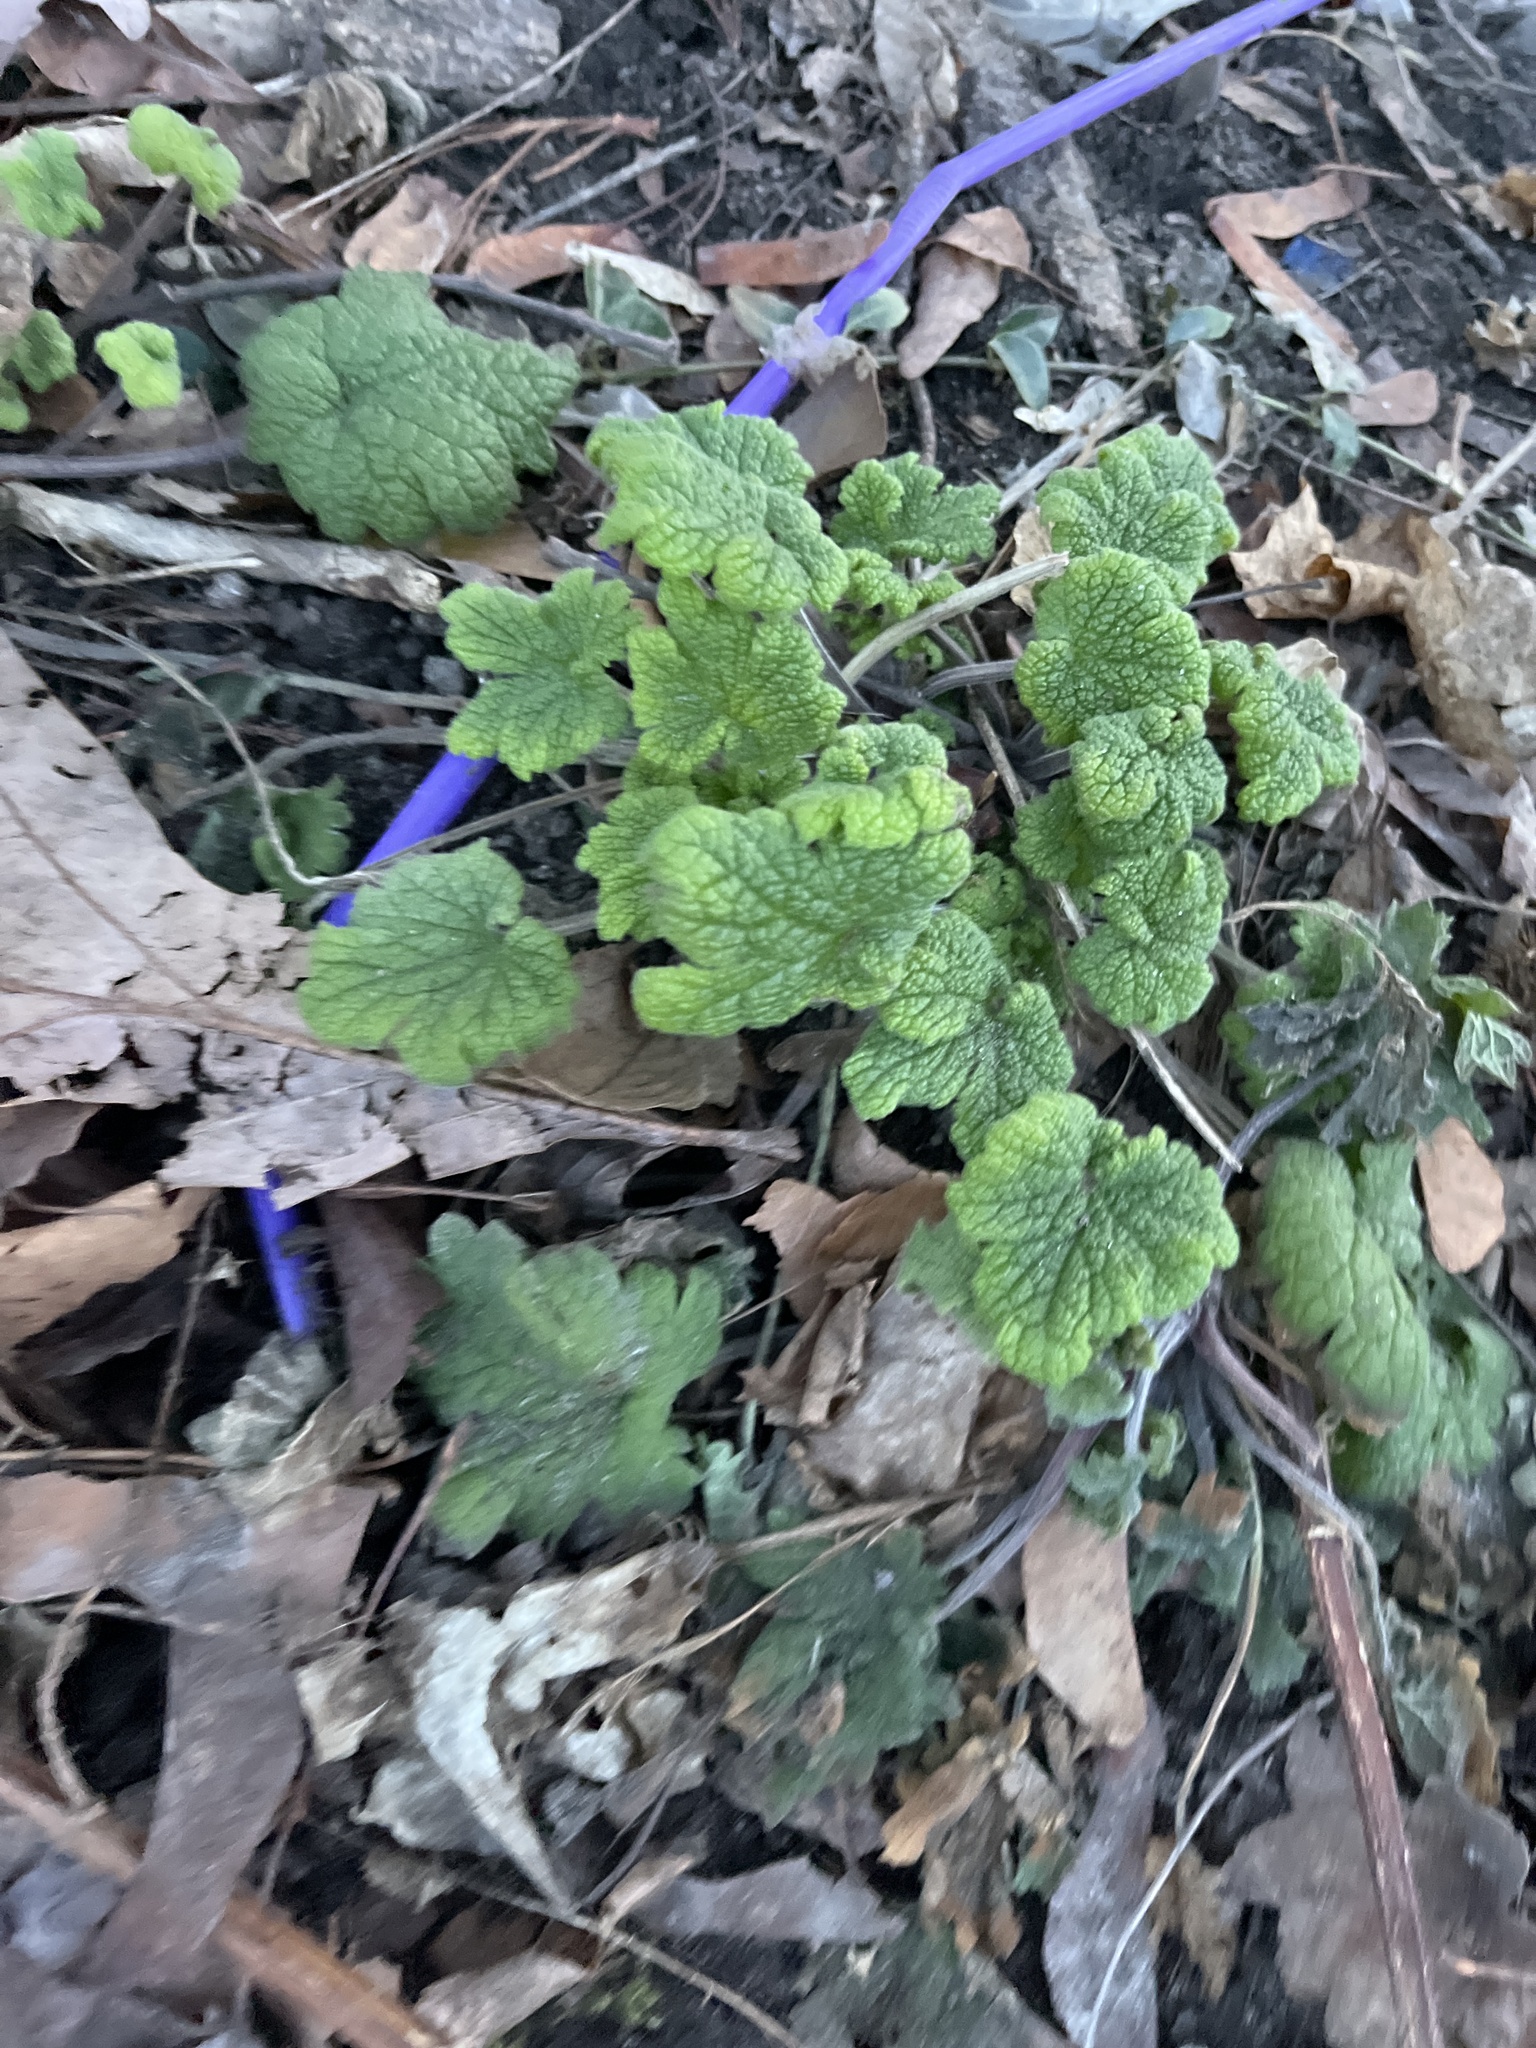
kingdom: Plantae
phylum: Tracheophyta
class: Magnoliopsida
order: Lamiales
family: Lamiaceae
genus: Leonurus
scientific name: Leonurus cardiaca
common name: Motherwort
